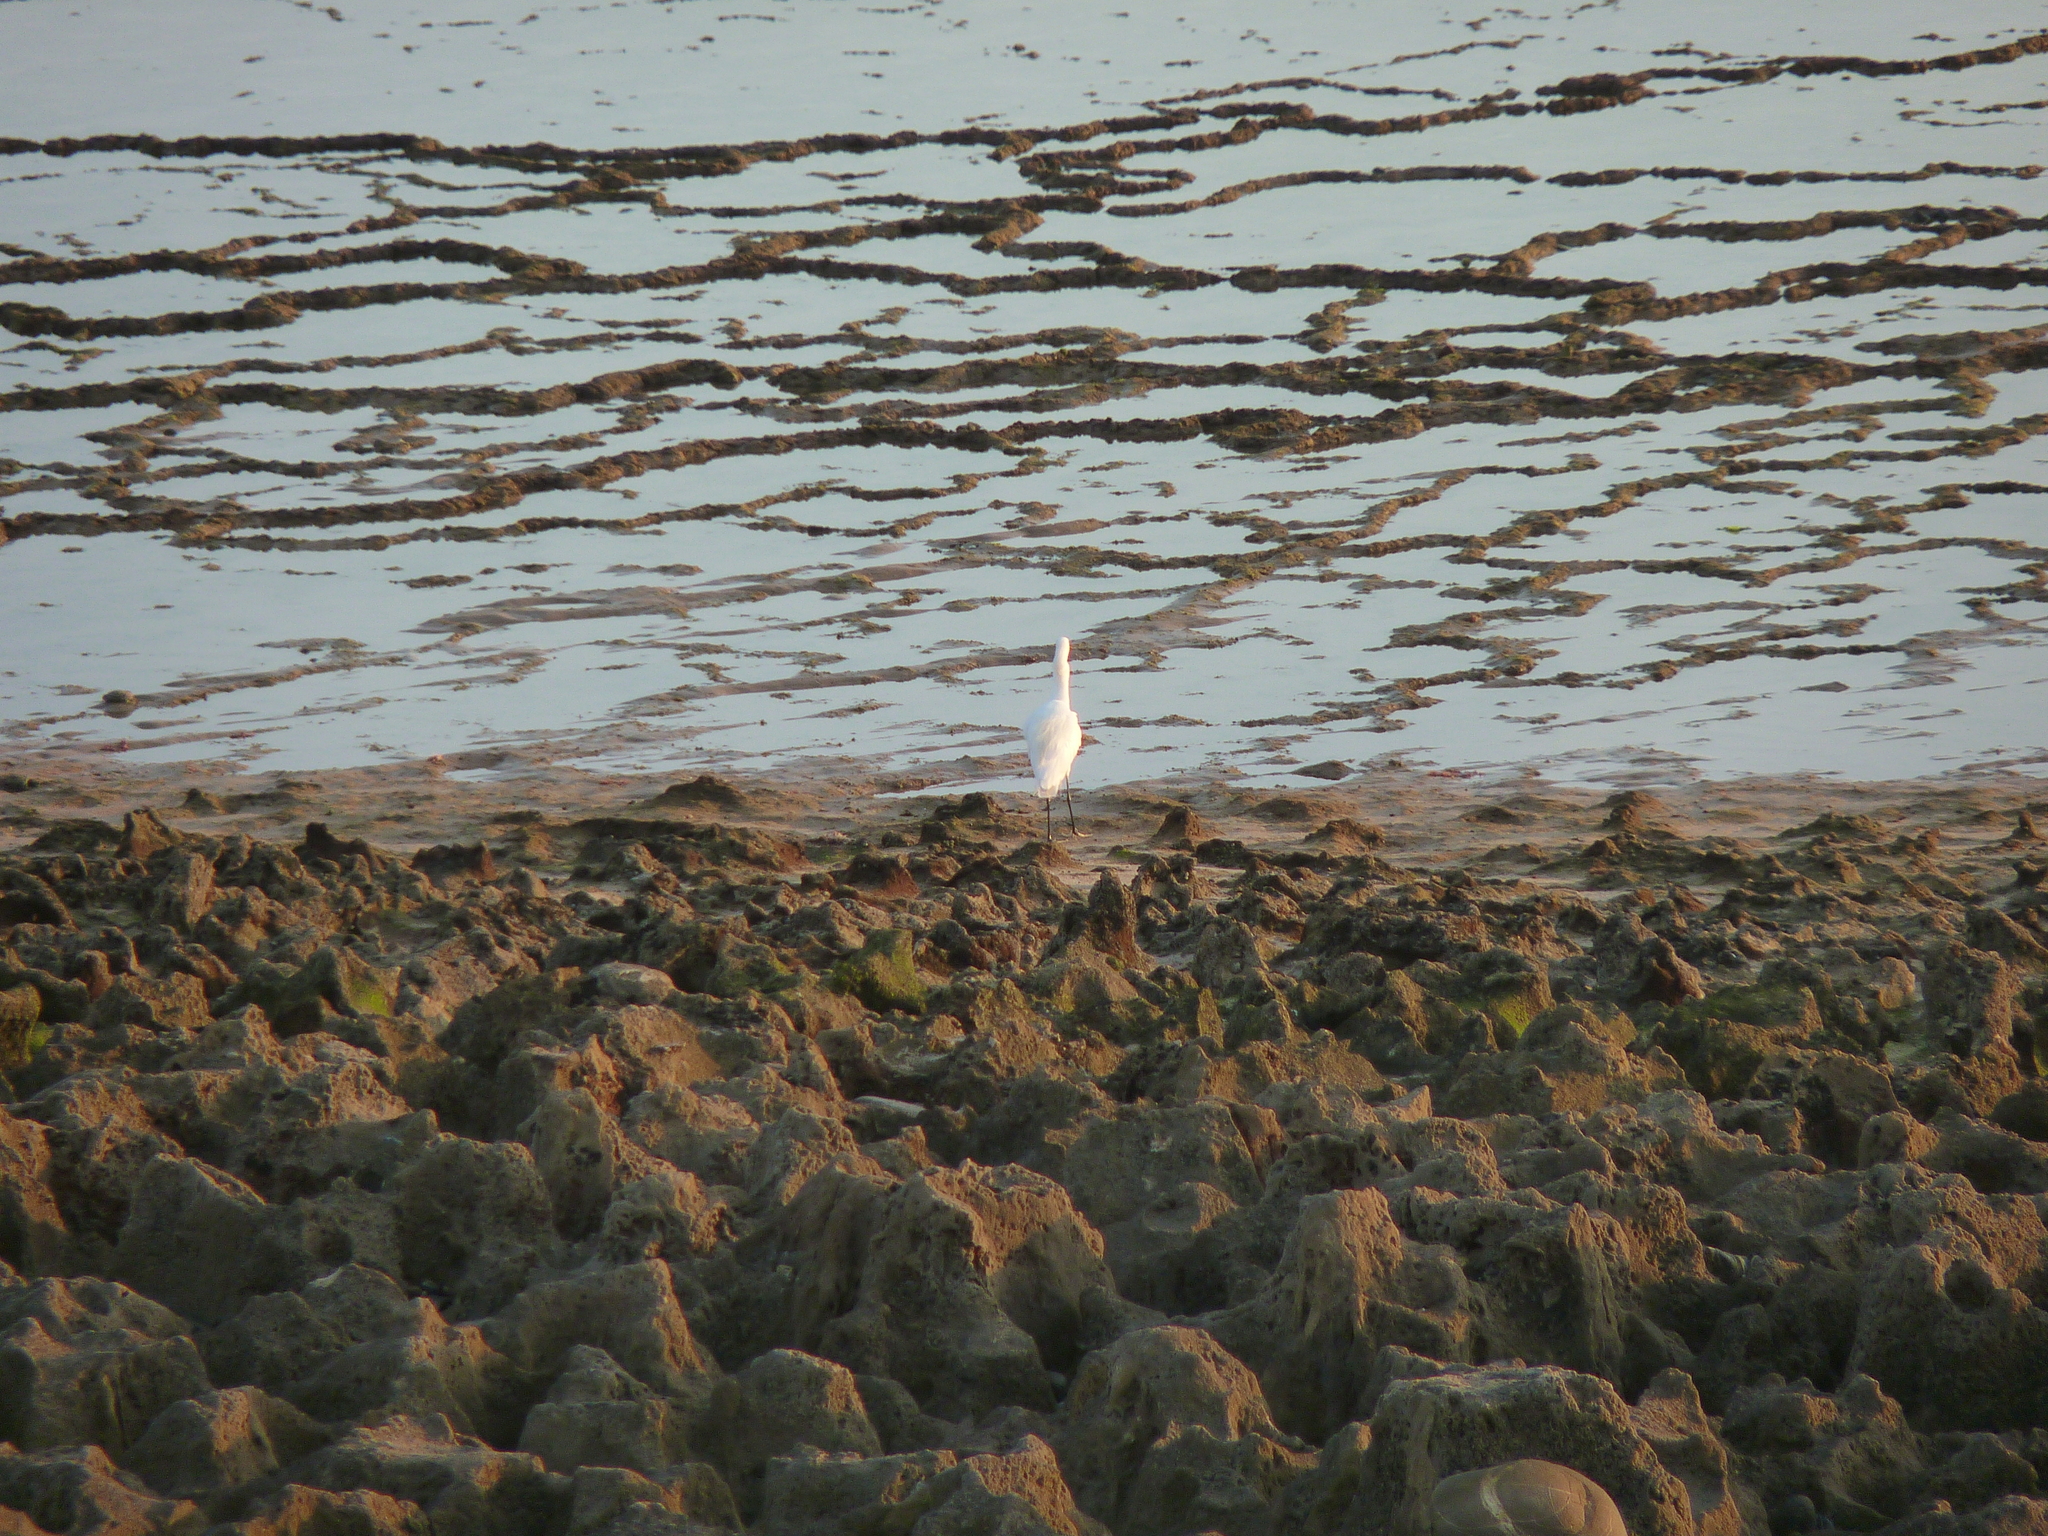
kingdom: Animalia
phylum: Chordata
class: Aves
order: Pelecaniformes
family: Ardeidae
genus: Egretta
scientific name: Egretta garzetta
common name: Little egret
